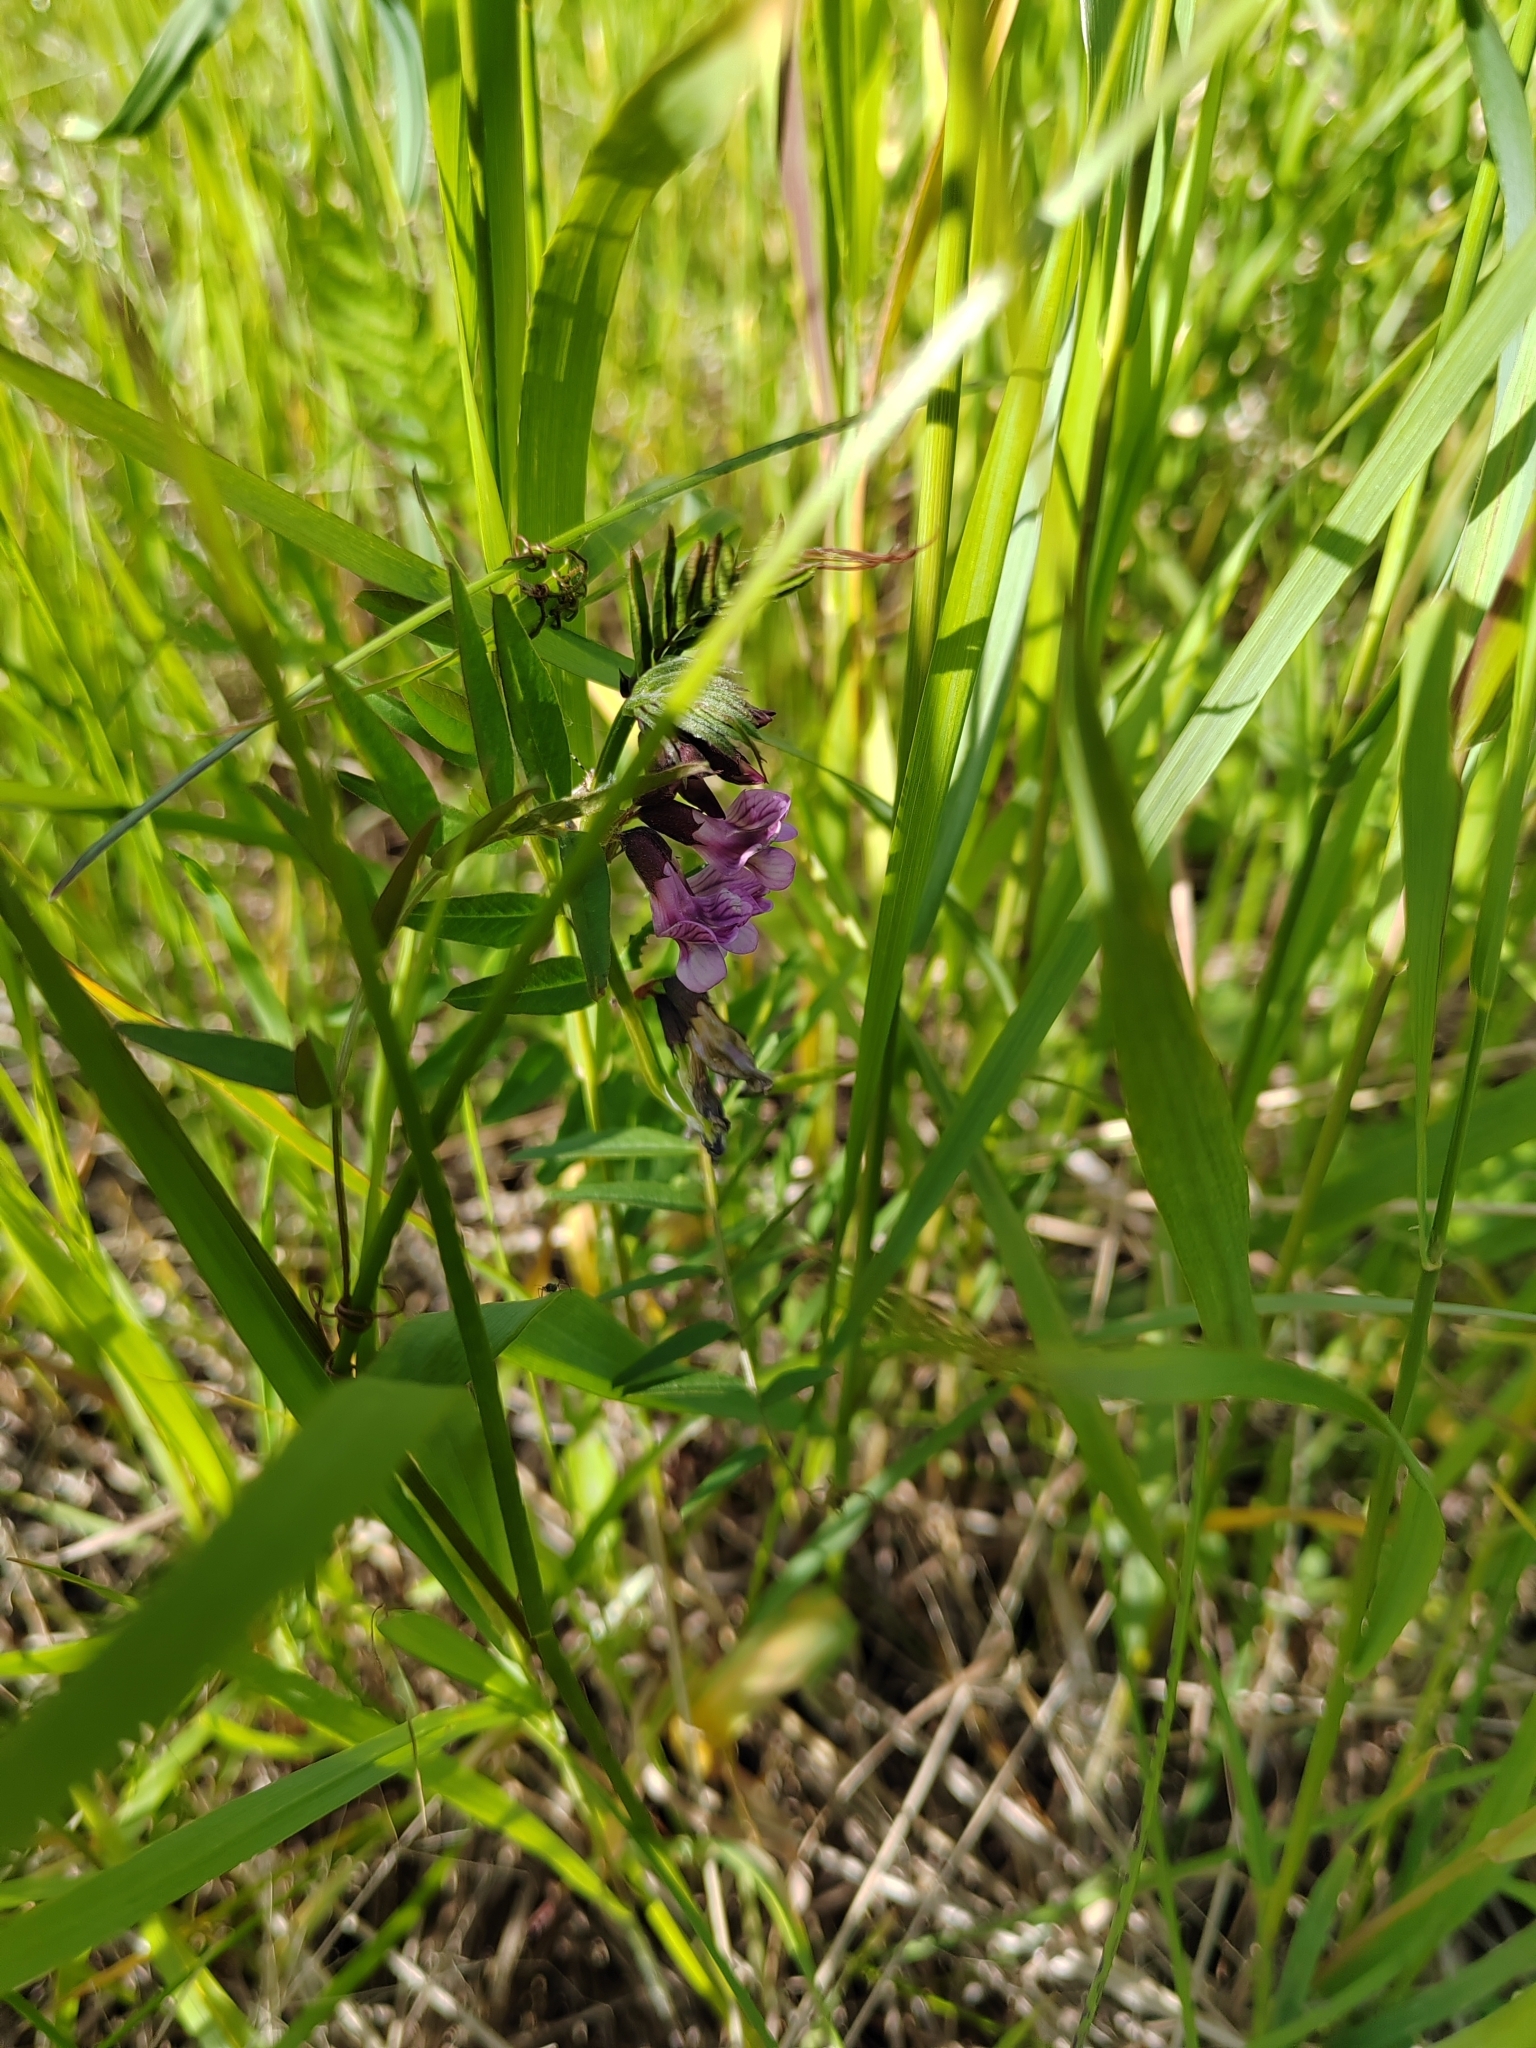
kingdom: Plantae
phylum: Tracheophyta
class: Magnoliopsida
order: Fabales
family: Fabaceae
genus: Vicia
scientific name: Vicia sepium
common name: Bush vetch
